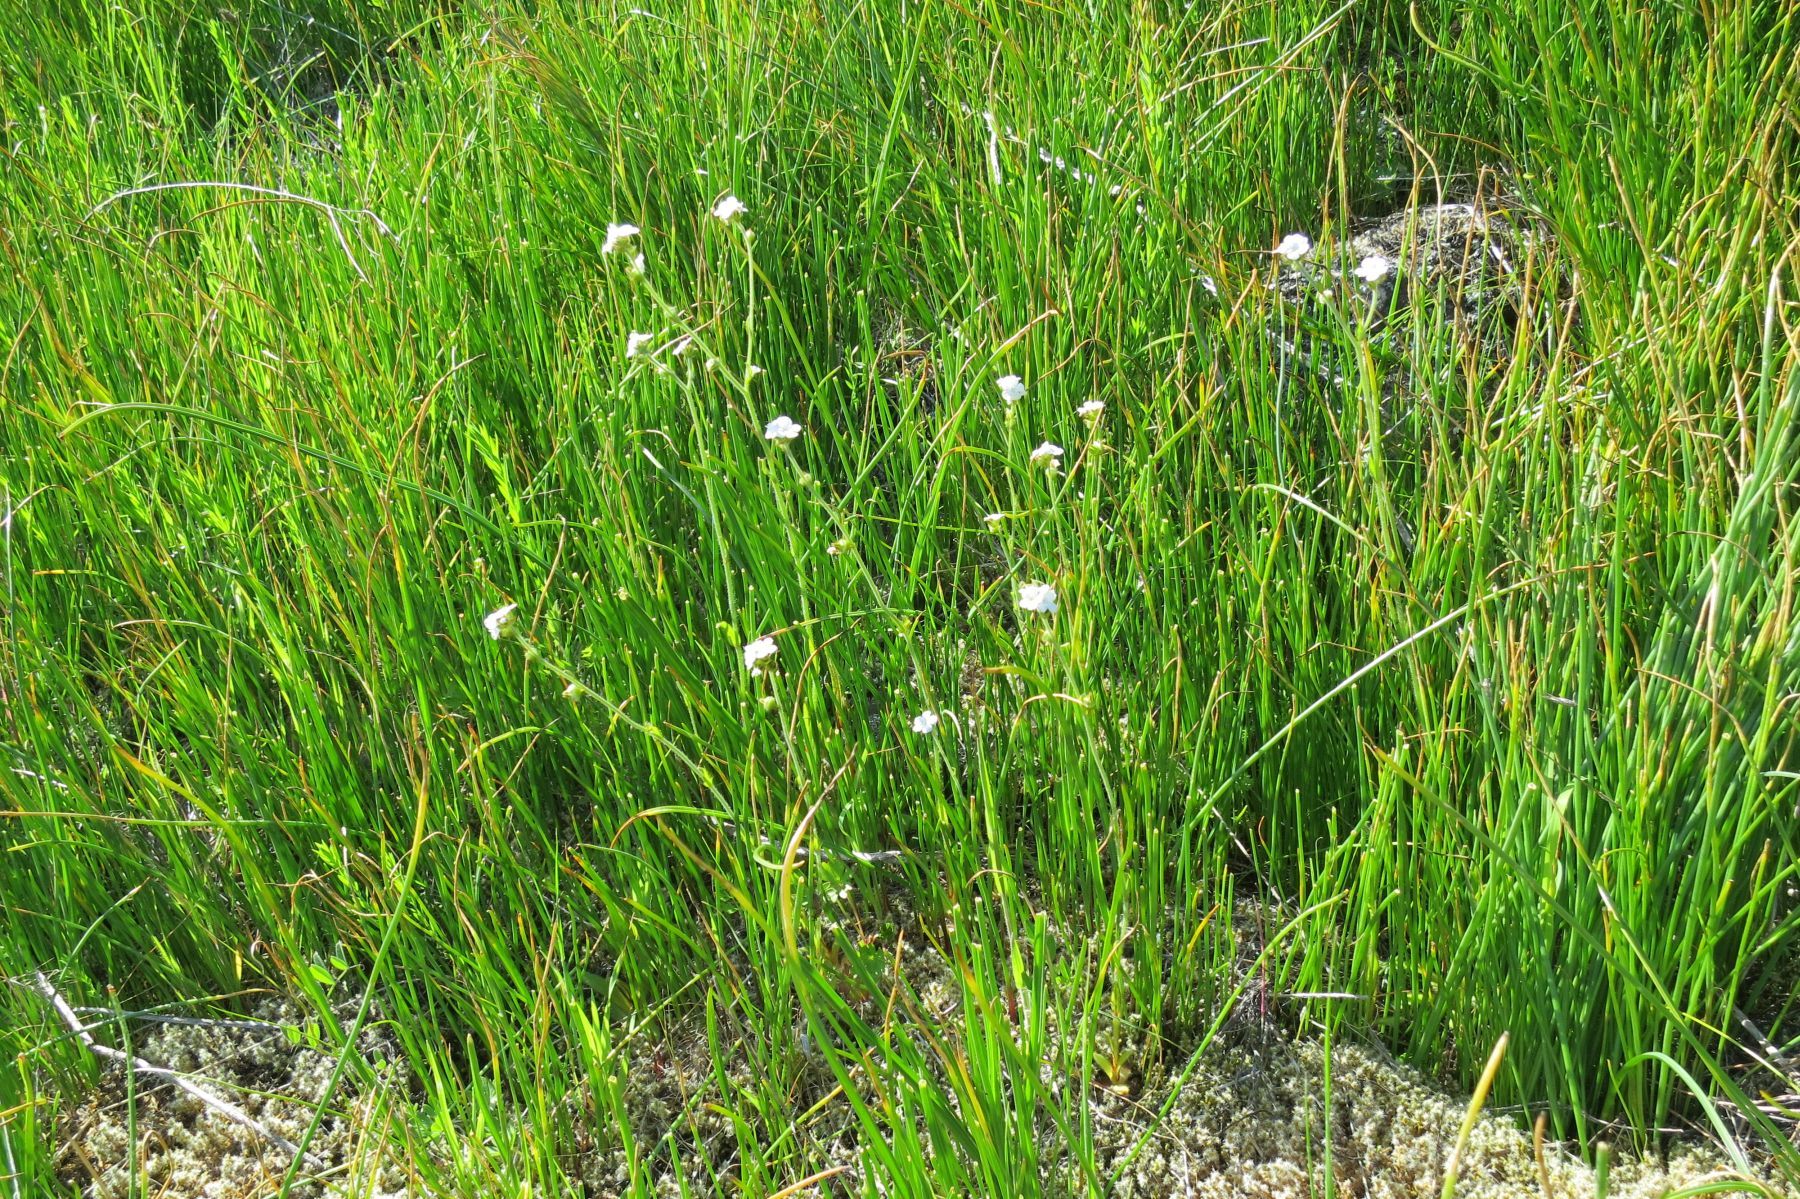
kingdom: Plantae
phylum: Tracheophyta
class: Magnoliopsida
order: Boraginales
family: Boraginaceae
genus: Cryptantha
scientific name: Cryptantha intermedia
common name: Clearwater cryptantha
